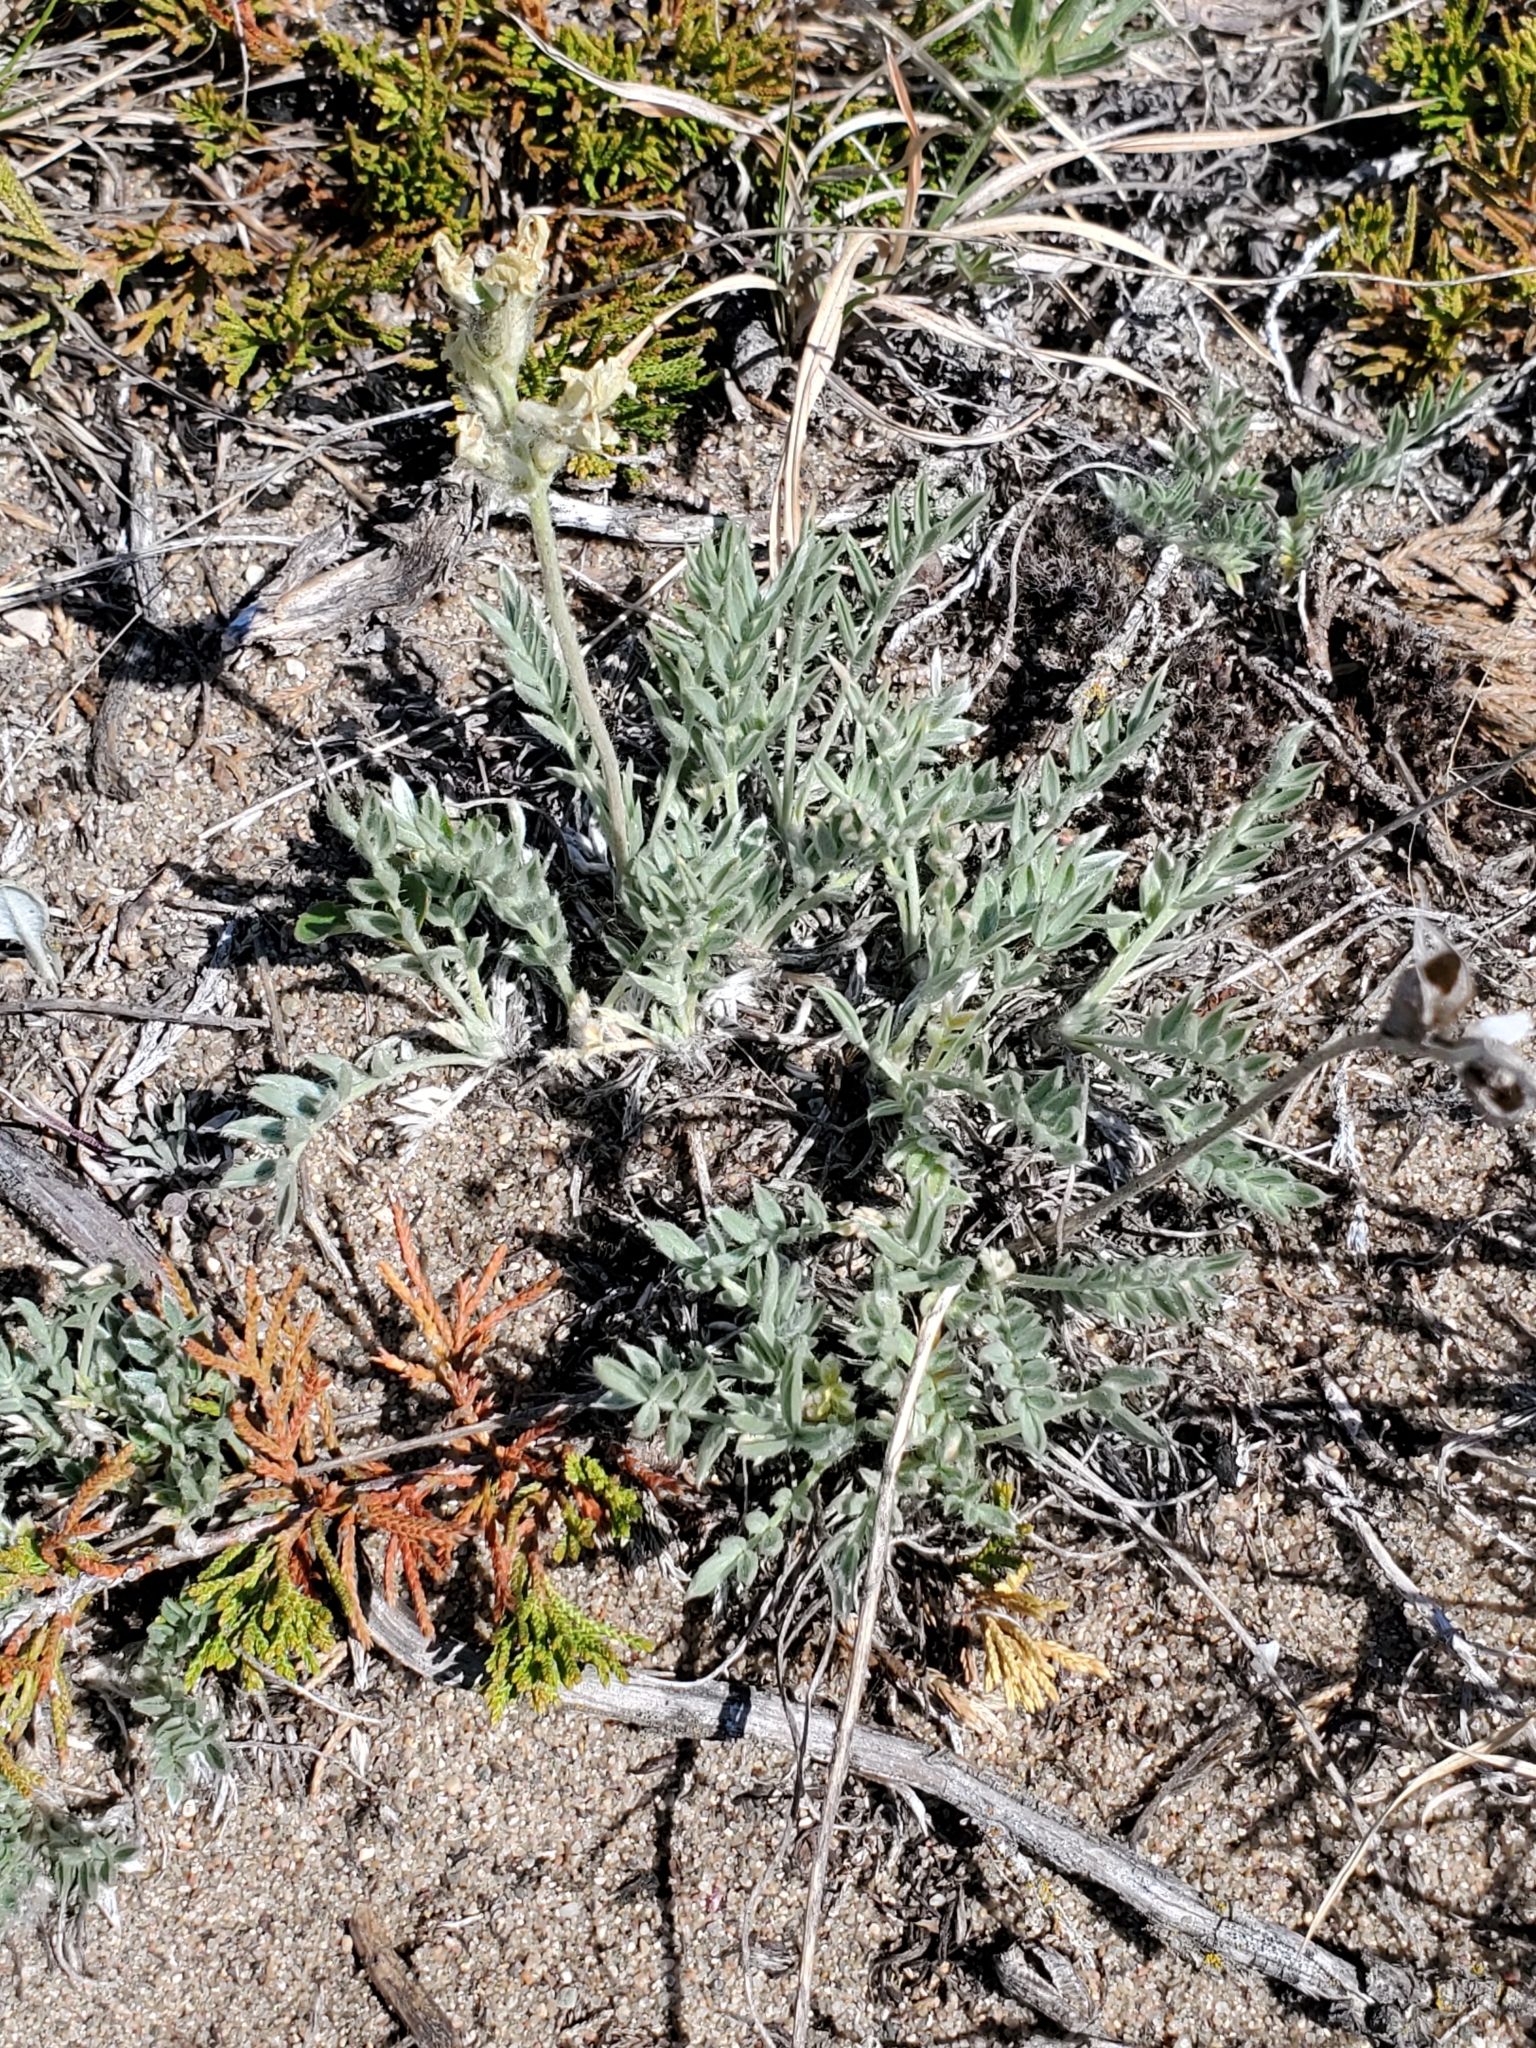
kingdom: Plantae
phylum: Tracheophyta
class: Magnoliopsida
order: Fabales
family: Fabaceae
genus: Oxytropis
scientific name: Oxytropis sericea
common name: Silky locoweed
